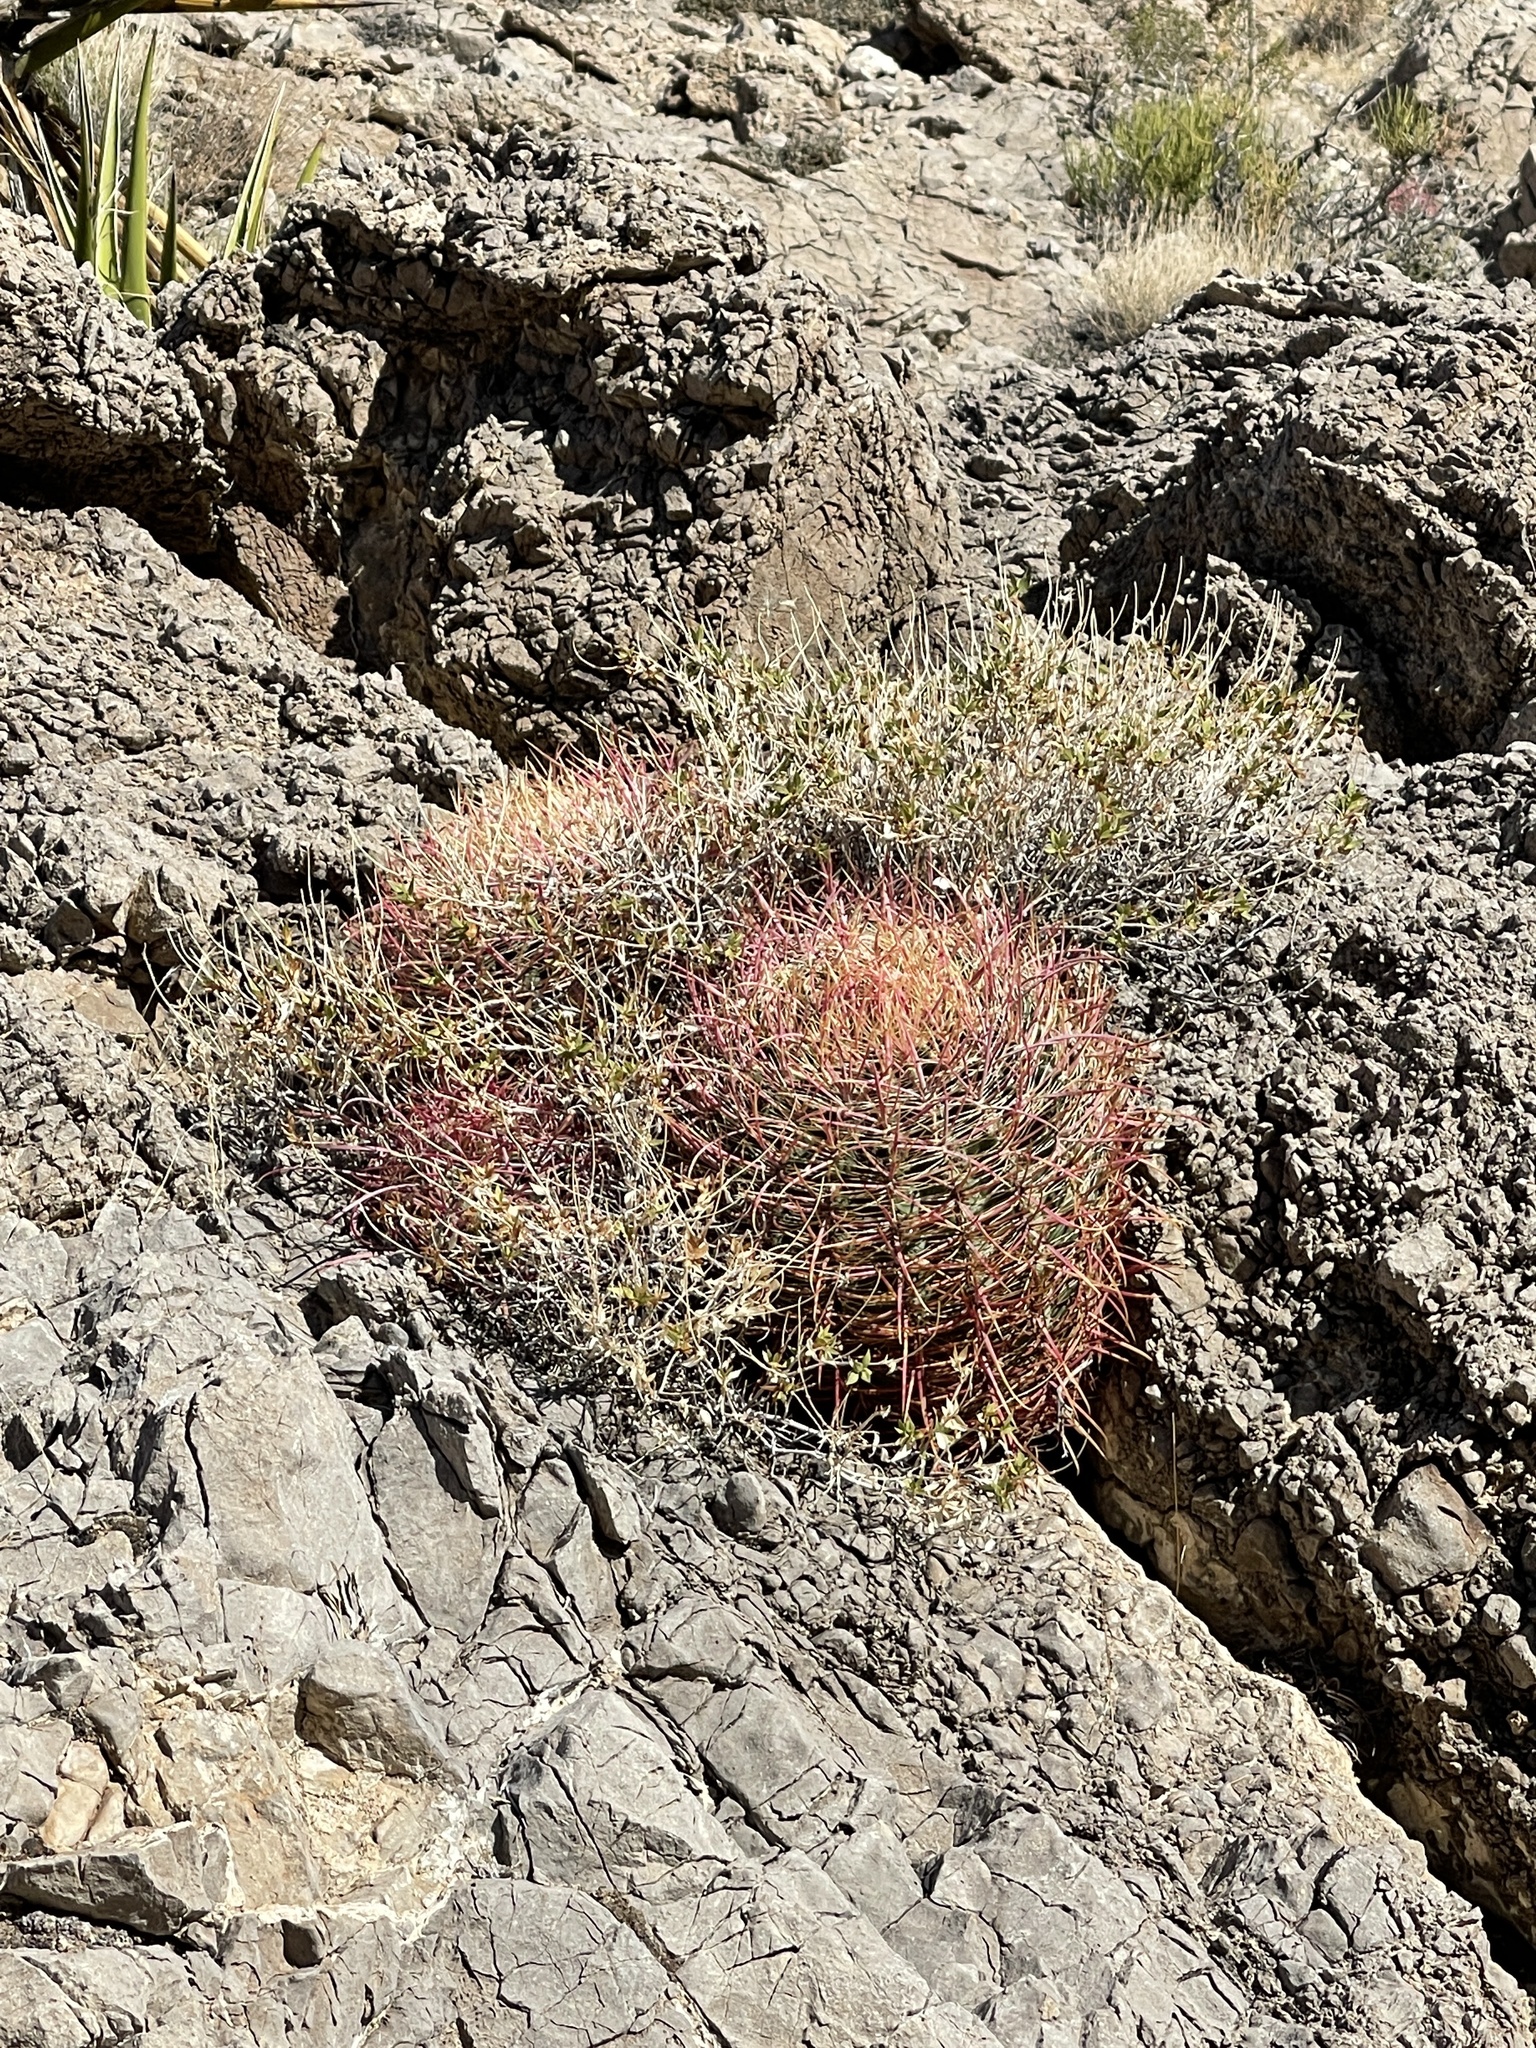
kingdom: Plantae
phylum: Tracheophyta
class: Magnoliopsida
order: Caryophyllales
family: Cactaceae
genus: Ferocactus
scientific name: Ferocactus cylindraceus
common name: California barrel cactus
